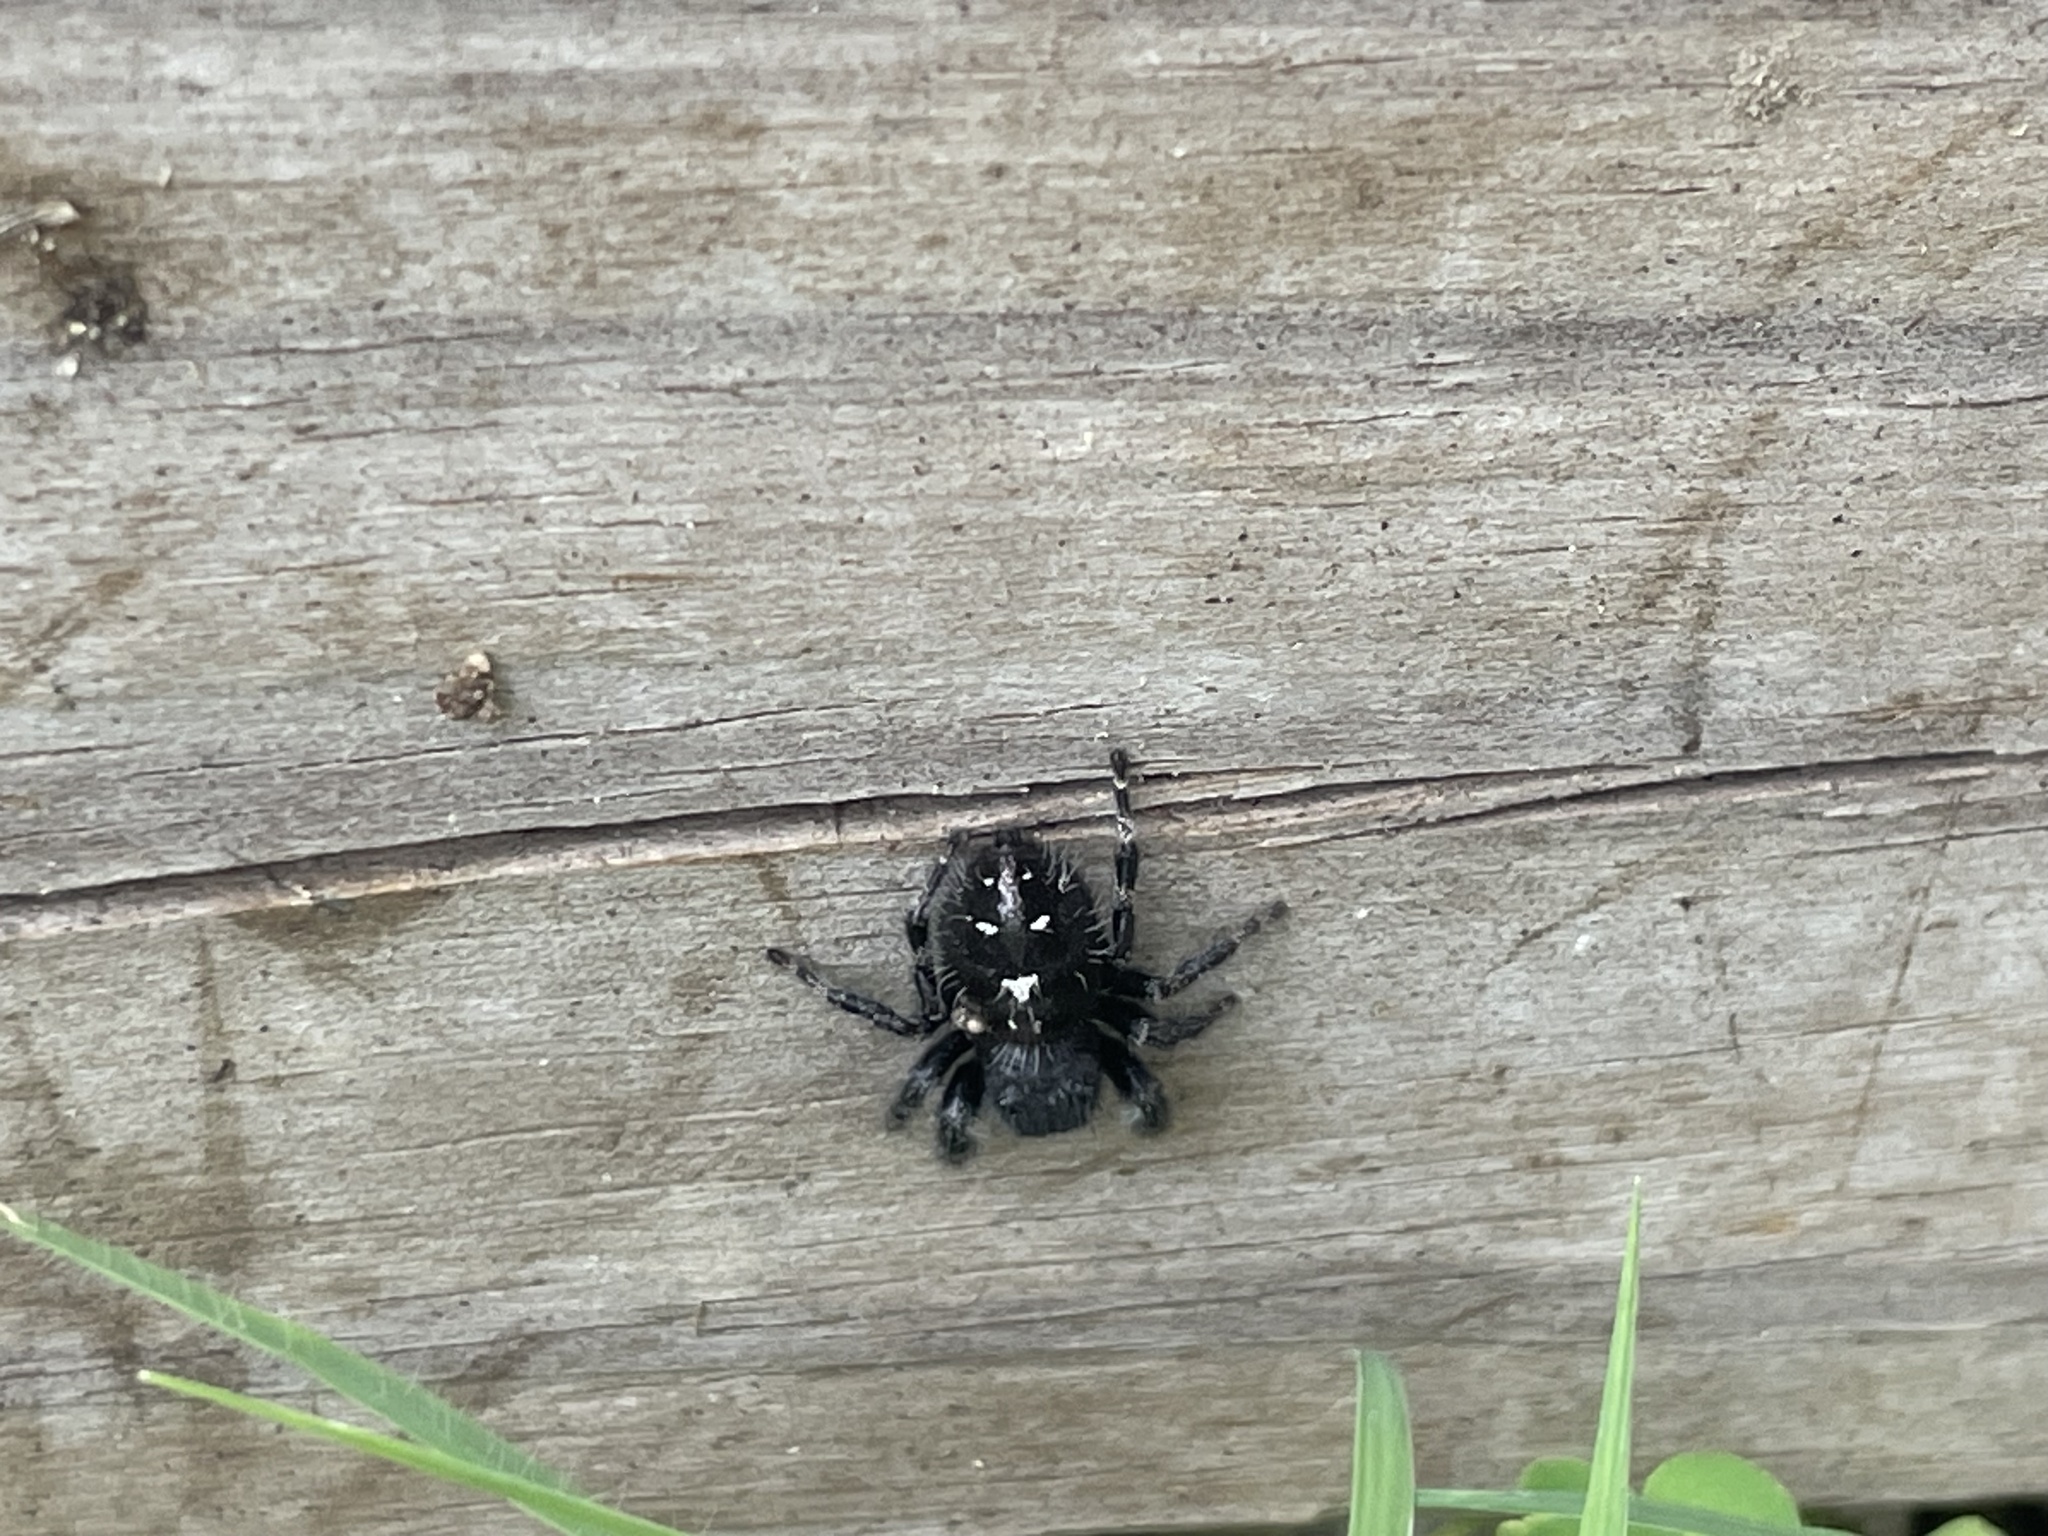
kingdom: Animalia
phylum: Arthropoda
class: Arachnida
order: Araneae
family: Salticidae
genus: Phidippus
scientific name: Phidippus audax
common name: Bold jumper
